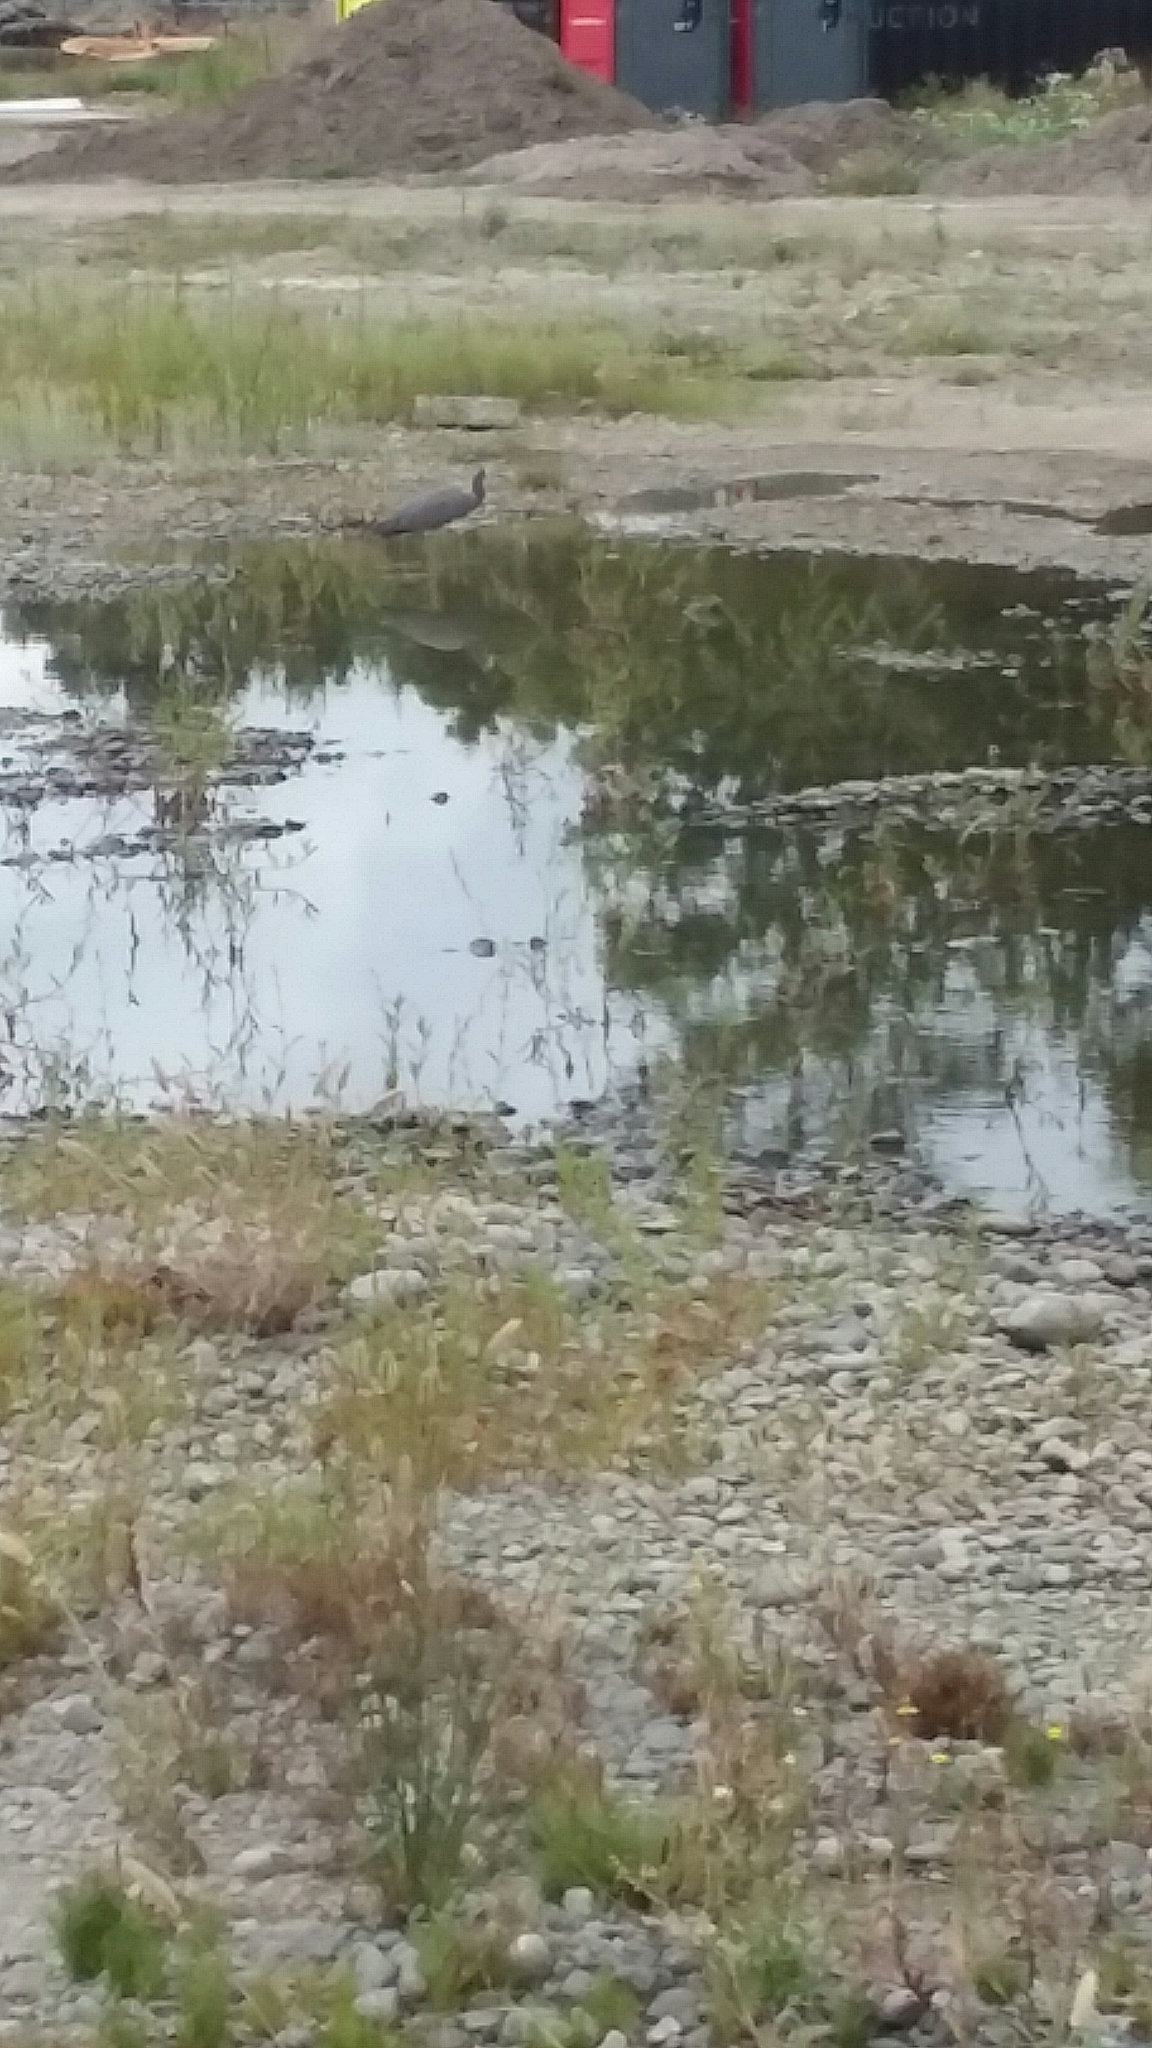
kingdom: Animalia
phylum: Chordata
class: Aves
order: Pelecaniformes
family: Ardeidae
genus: Egretta
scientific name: Egretta novaehollandiae
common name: White-faced heron
